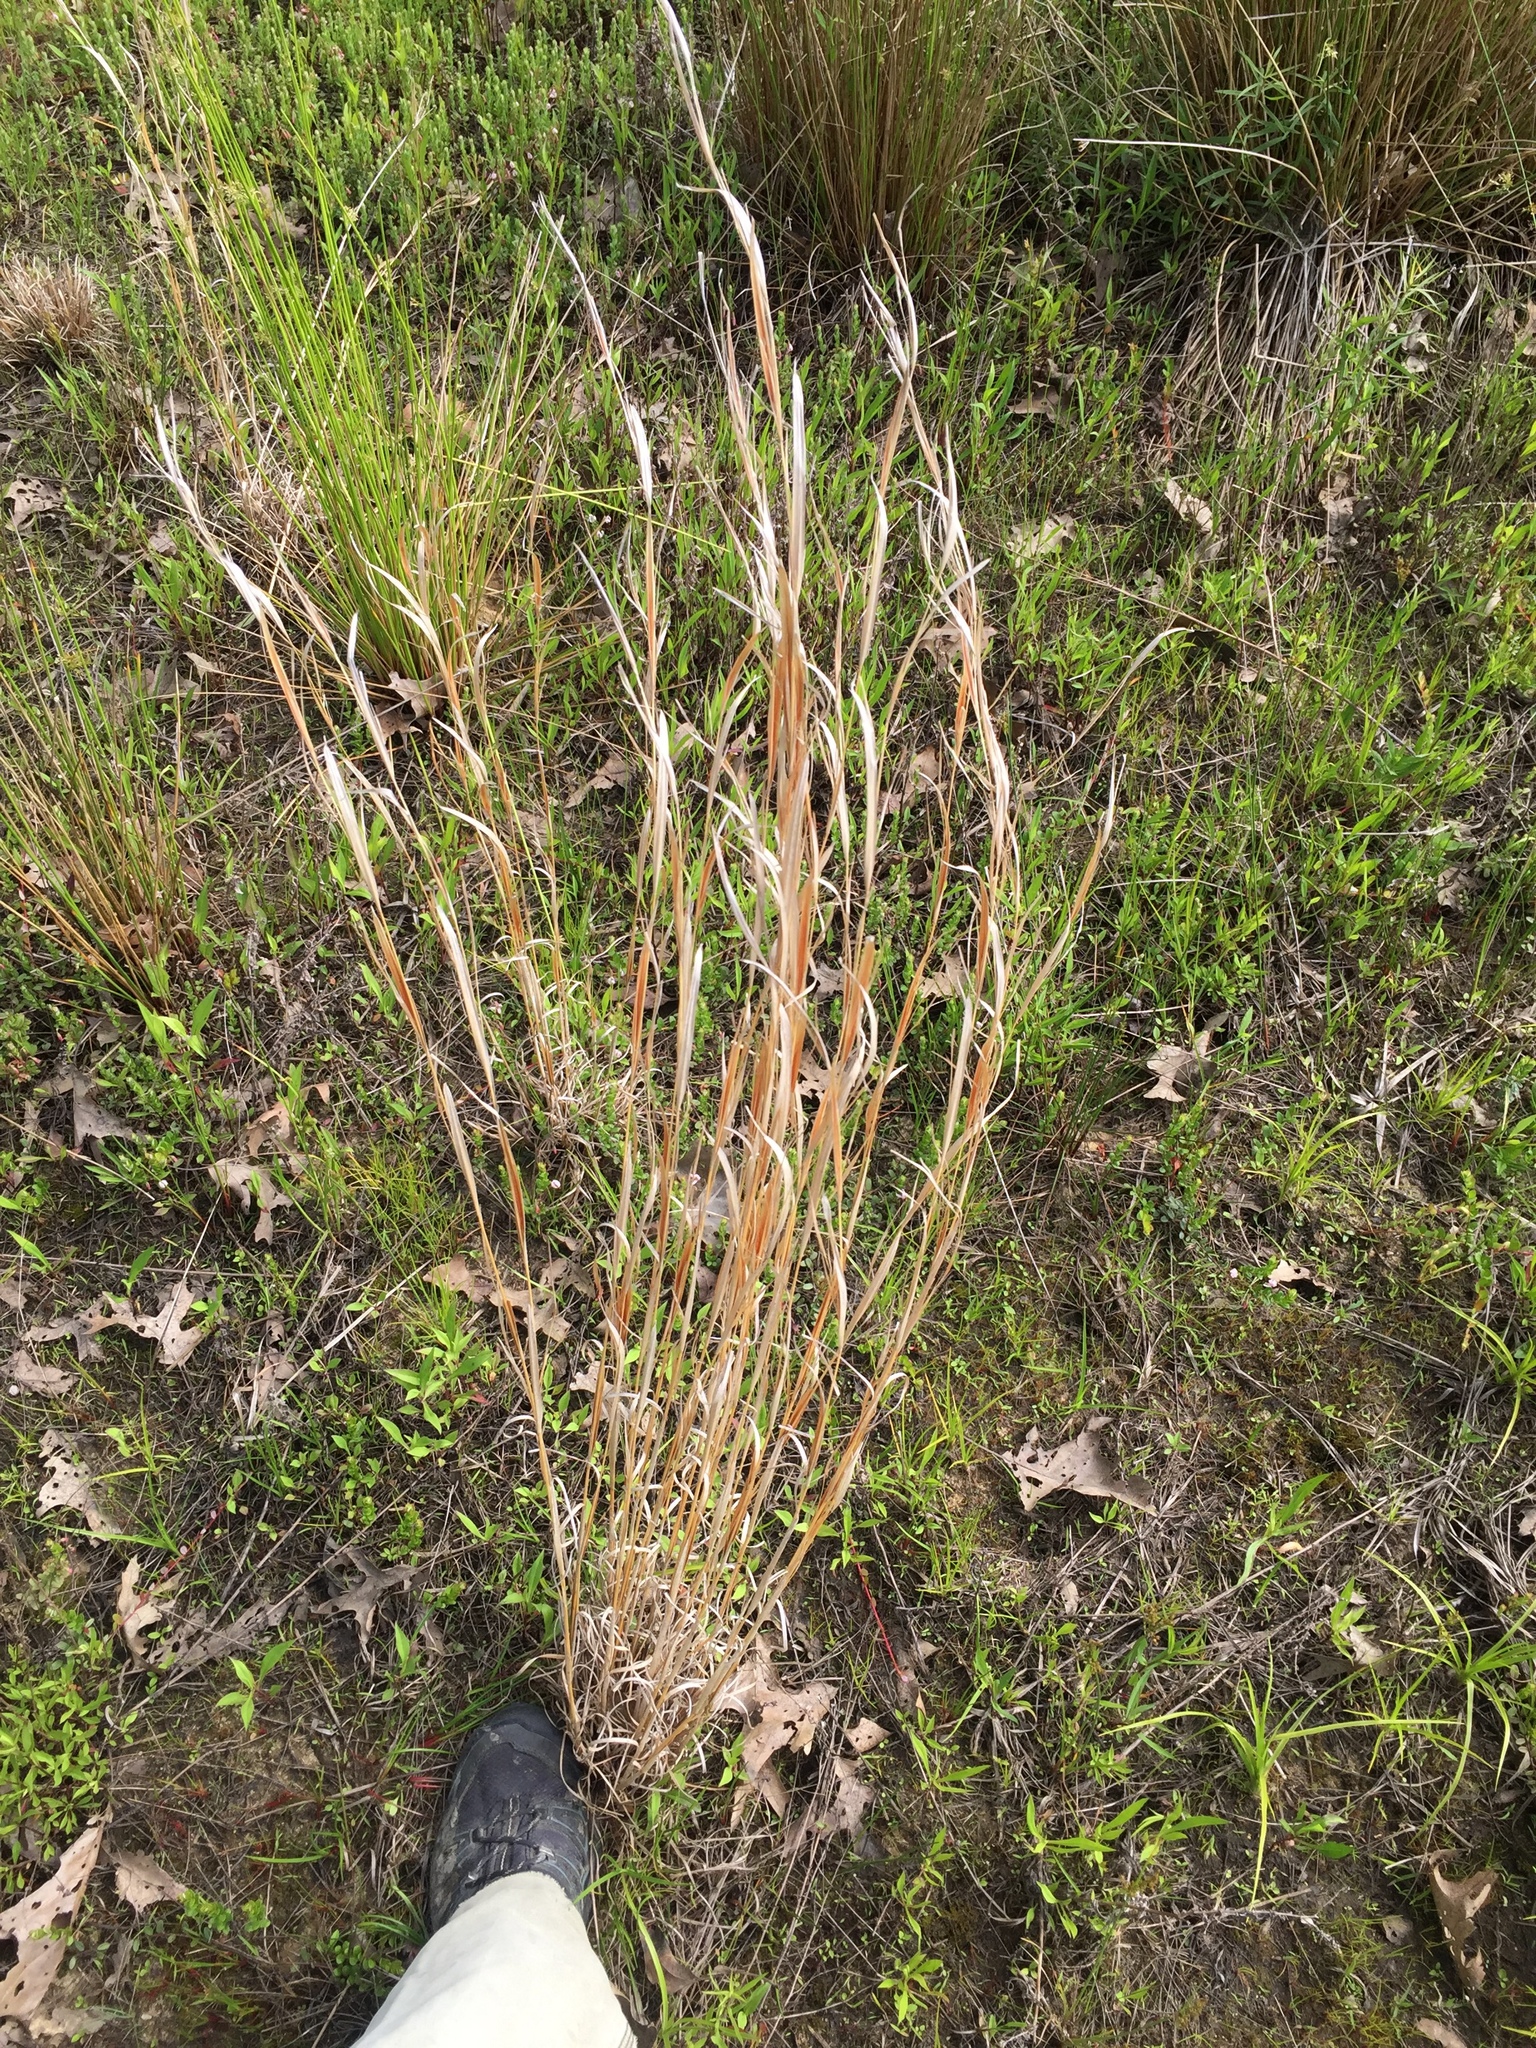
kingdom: Plantae
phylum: Tracheophyta
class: Liliopsida
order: Poales
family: Poaceae
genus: Andropogon
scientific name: Andropogon virginicus
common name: Broomsedge bluestem
